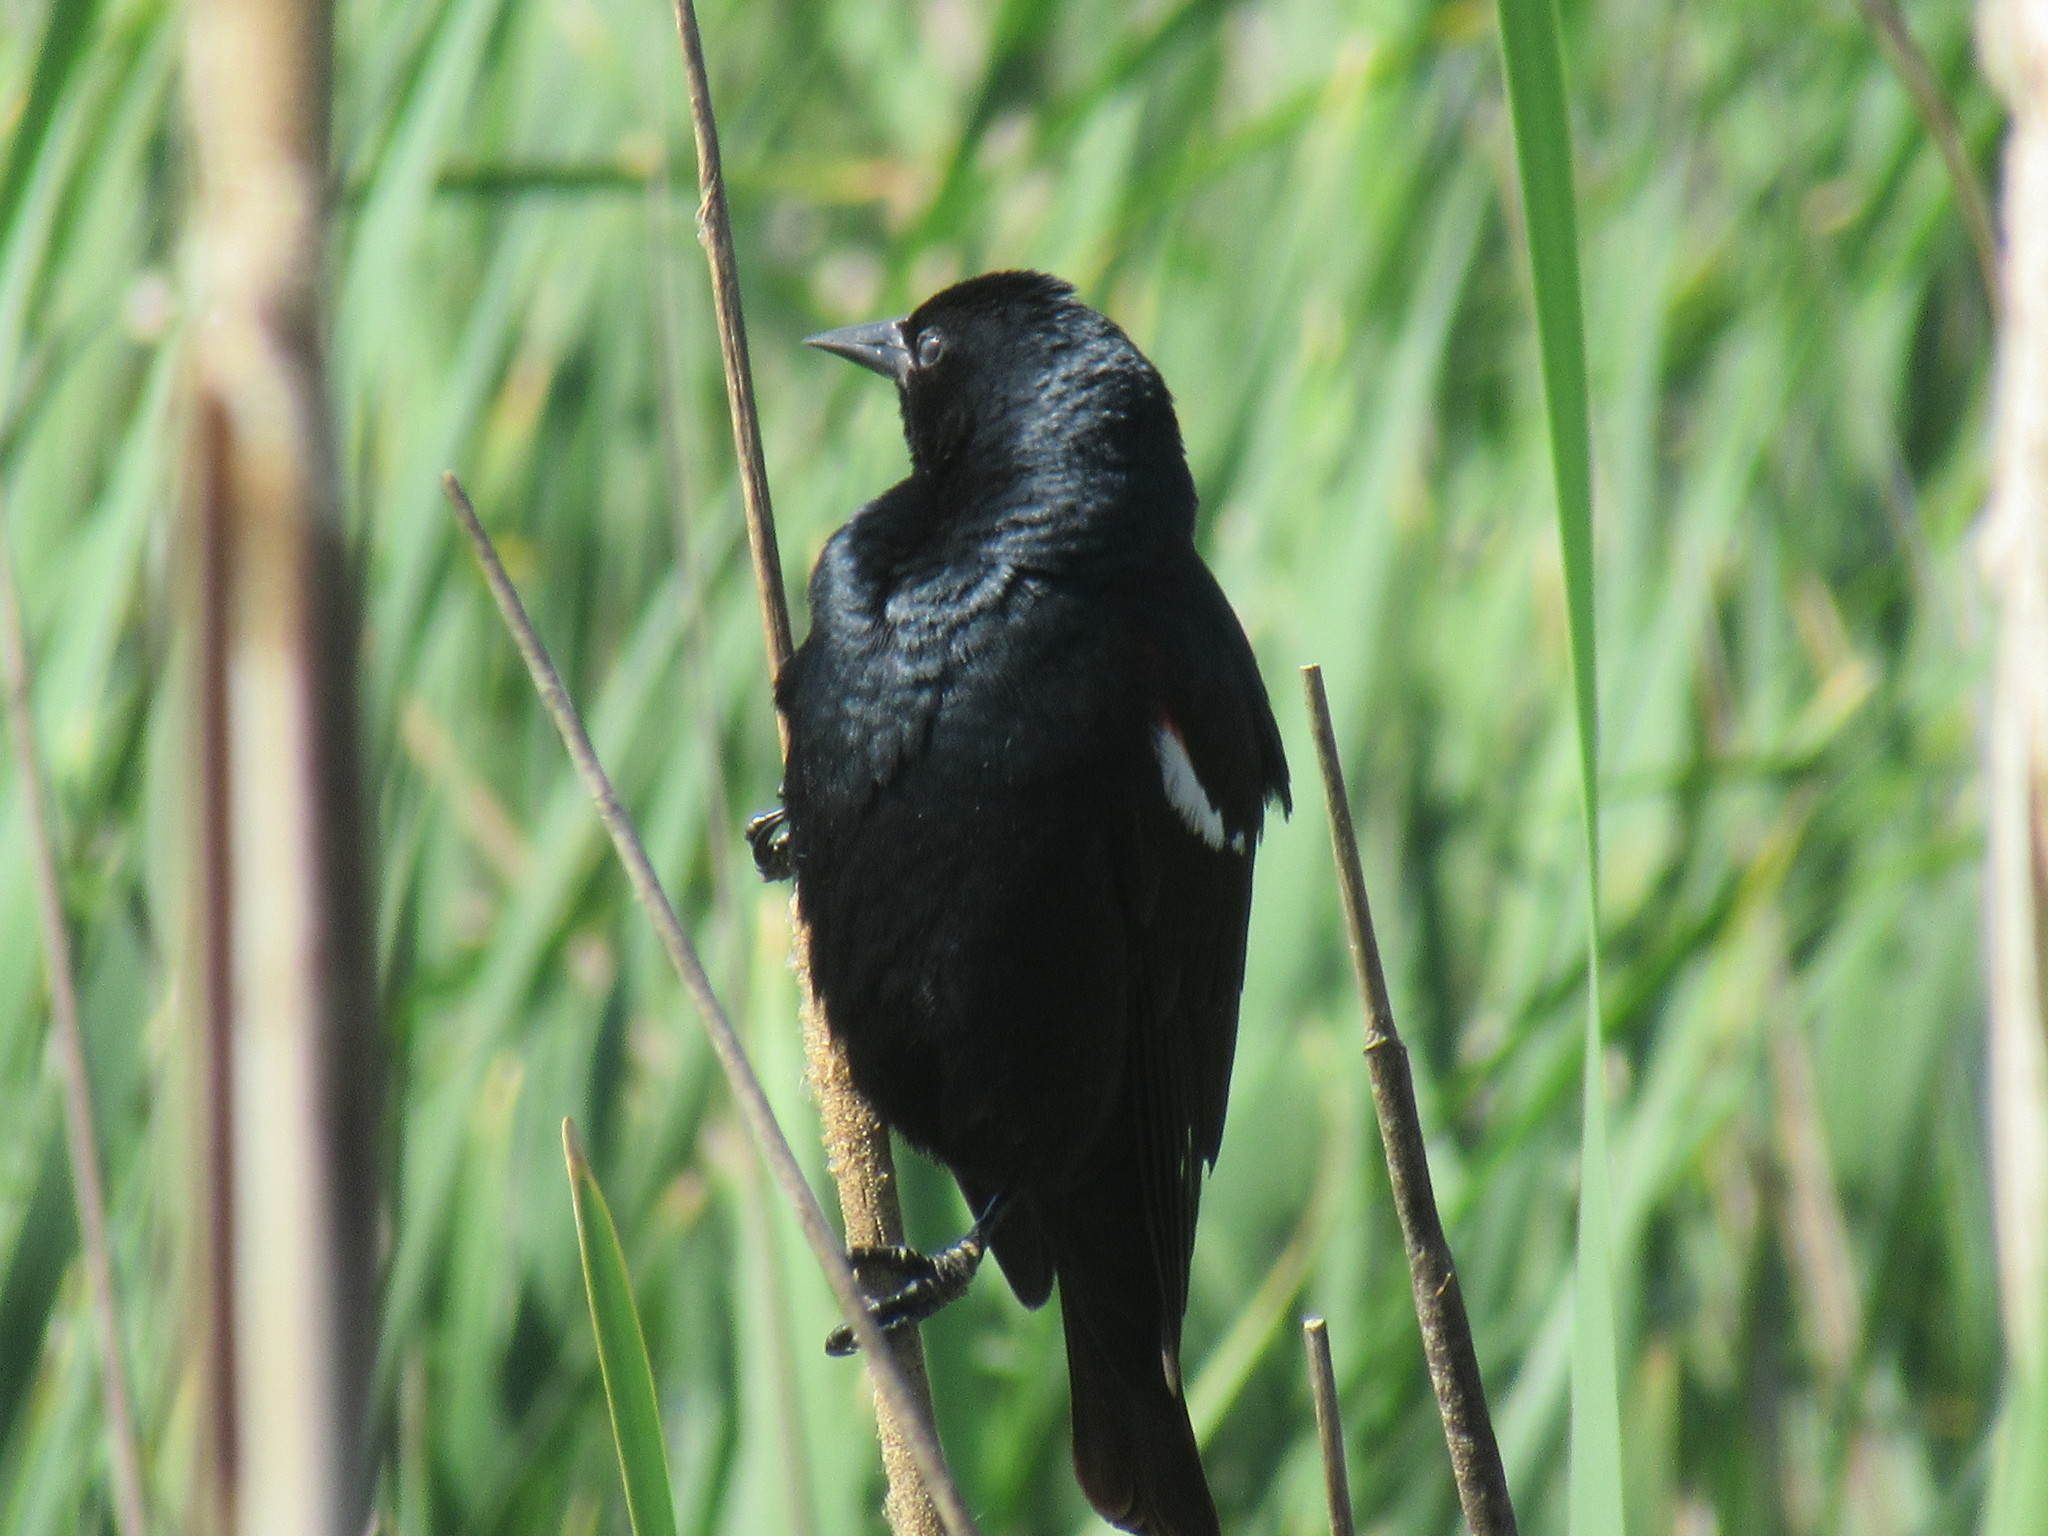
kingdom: Animalia
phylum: Chordata
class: Aves
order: Passeriformes
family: Icteridae
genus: Agelaius
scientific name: Agelaius tricolor
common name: Tricolored blackbird
